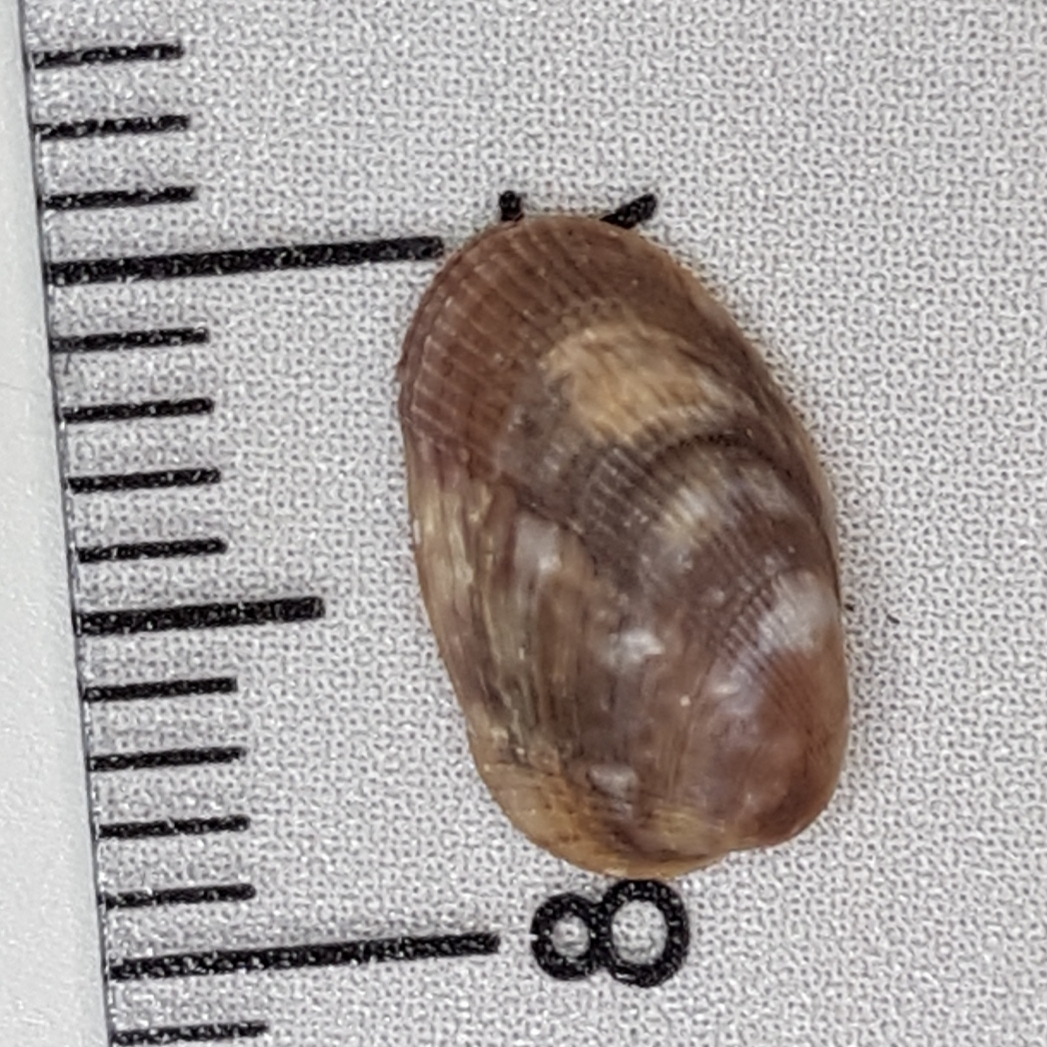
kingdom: Animalia
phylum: Mollusca
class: Bivalvia
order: Mytilida
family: Mytilidae
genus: Musculus
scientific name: Musculus subpictus
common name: Marbled crenella
